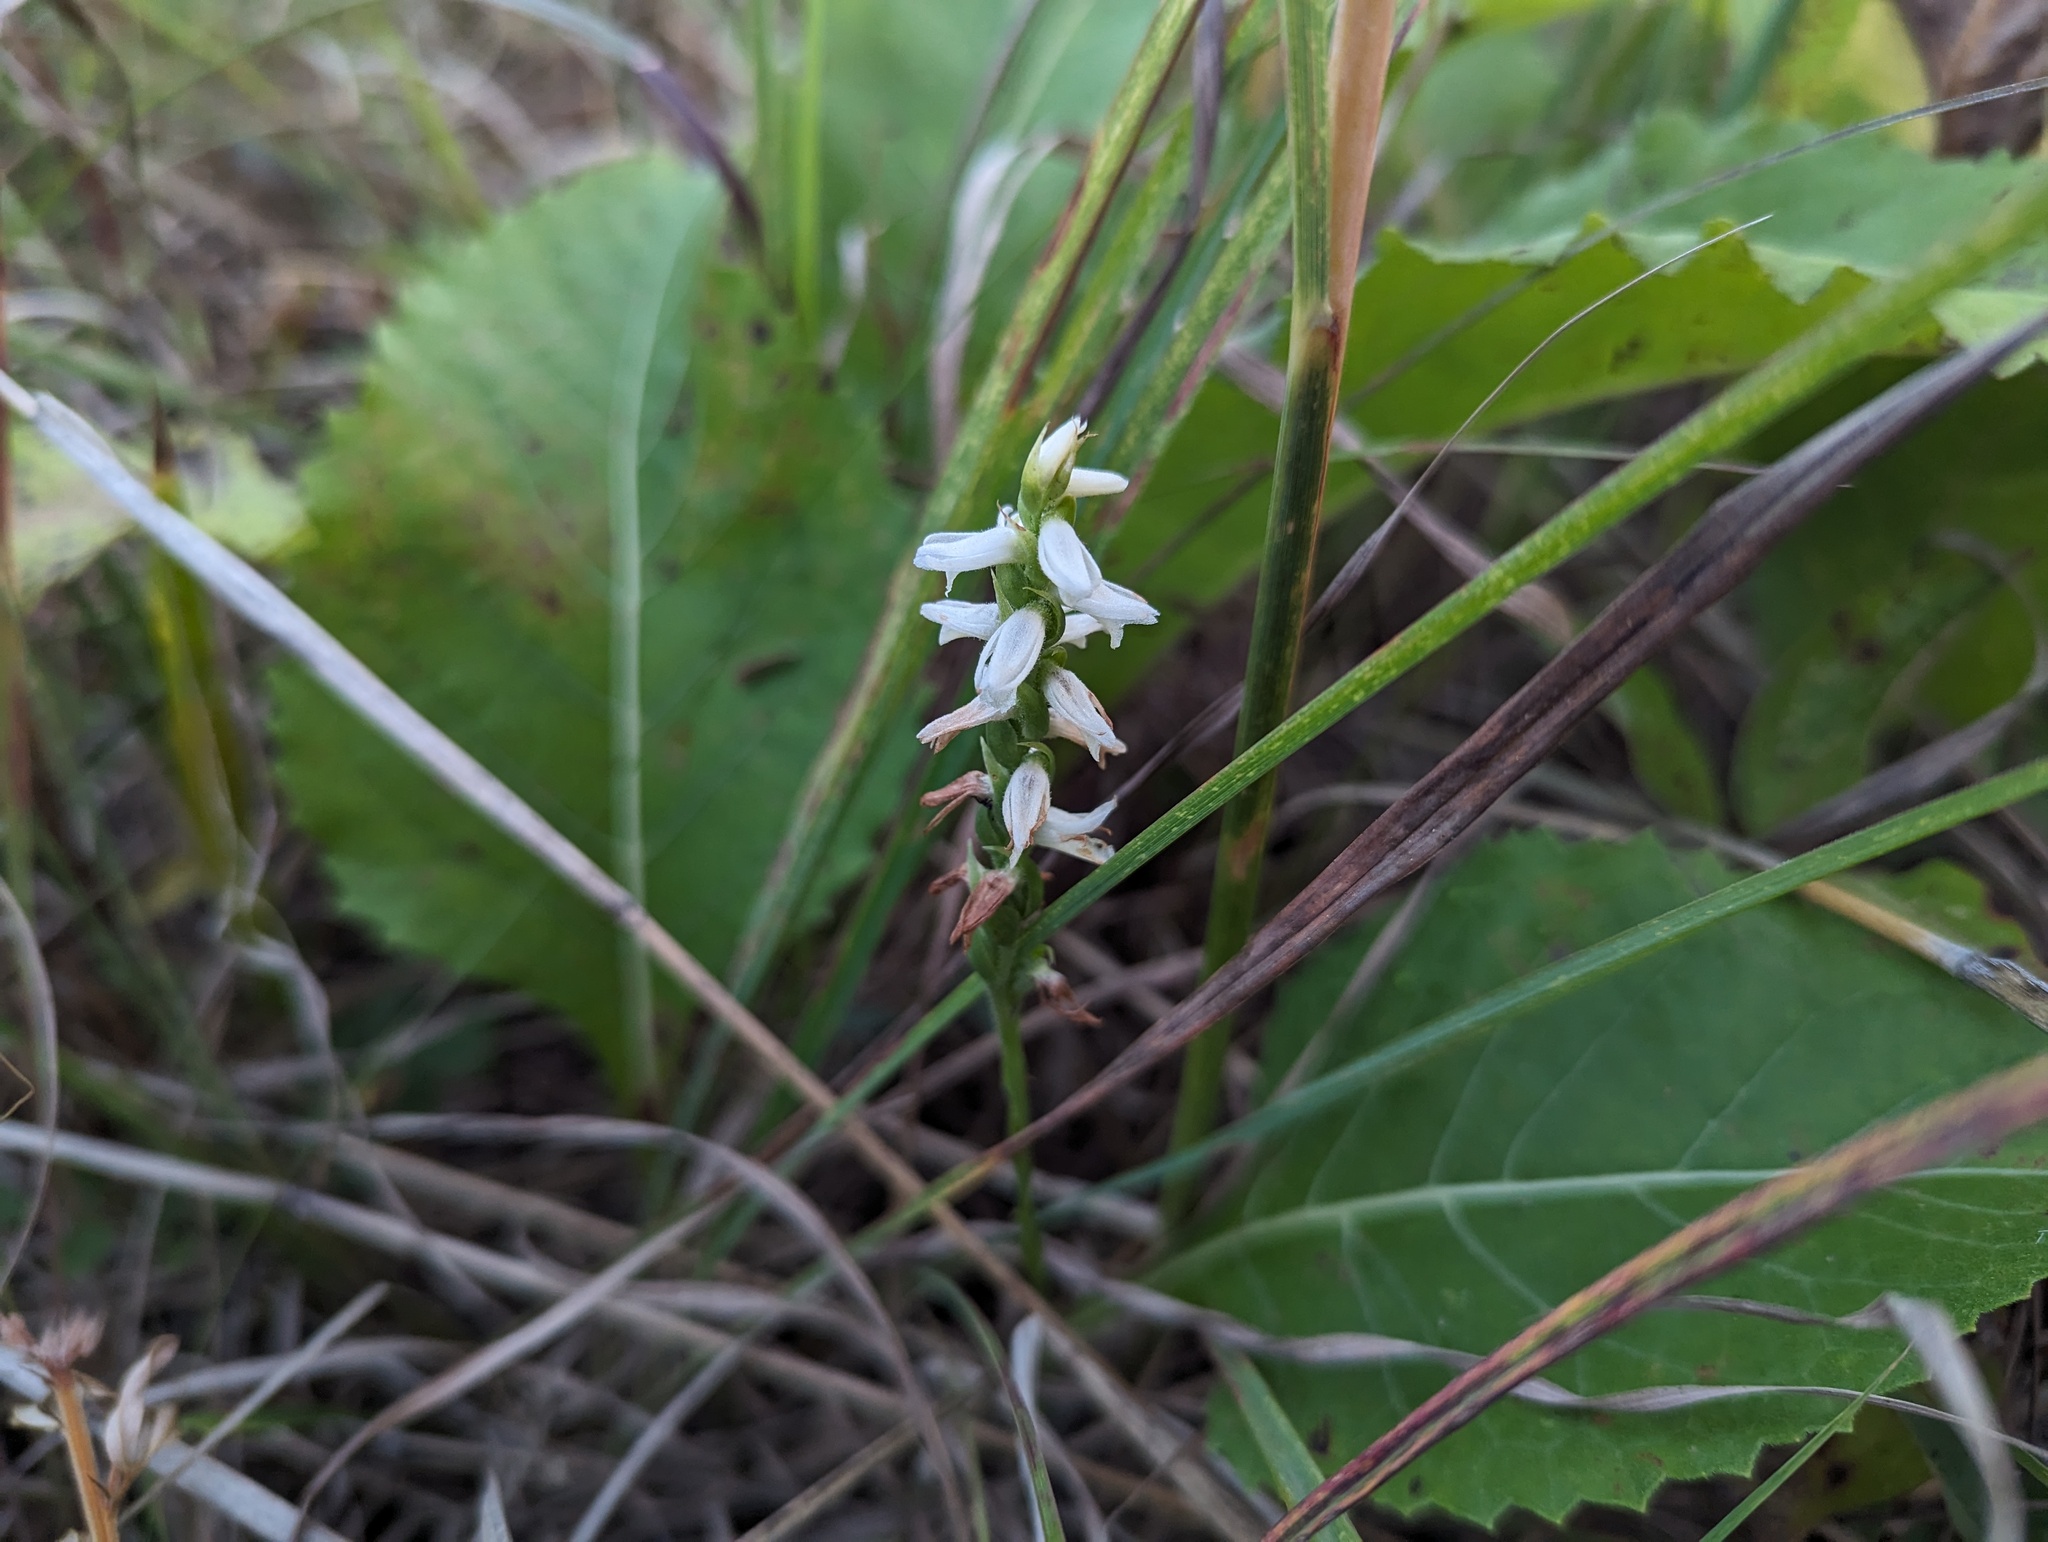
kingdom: Plantae
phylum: Tracheophyta
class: Liliopsida
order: Asparagales
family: Orchidaceae
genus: Spiranthes
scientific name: Spiranthes magnicamporum
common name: Great plains ladies'-tresses
